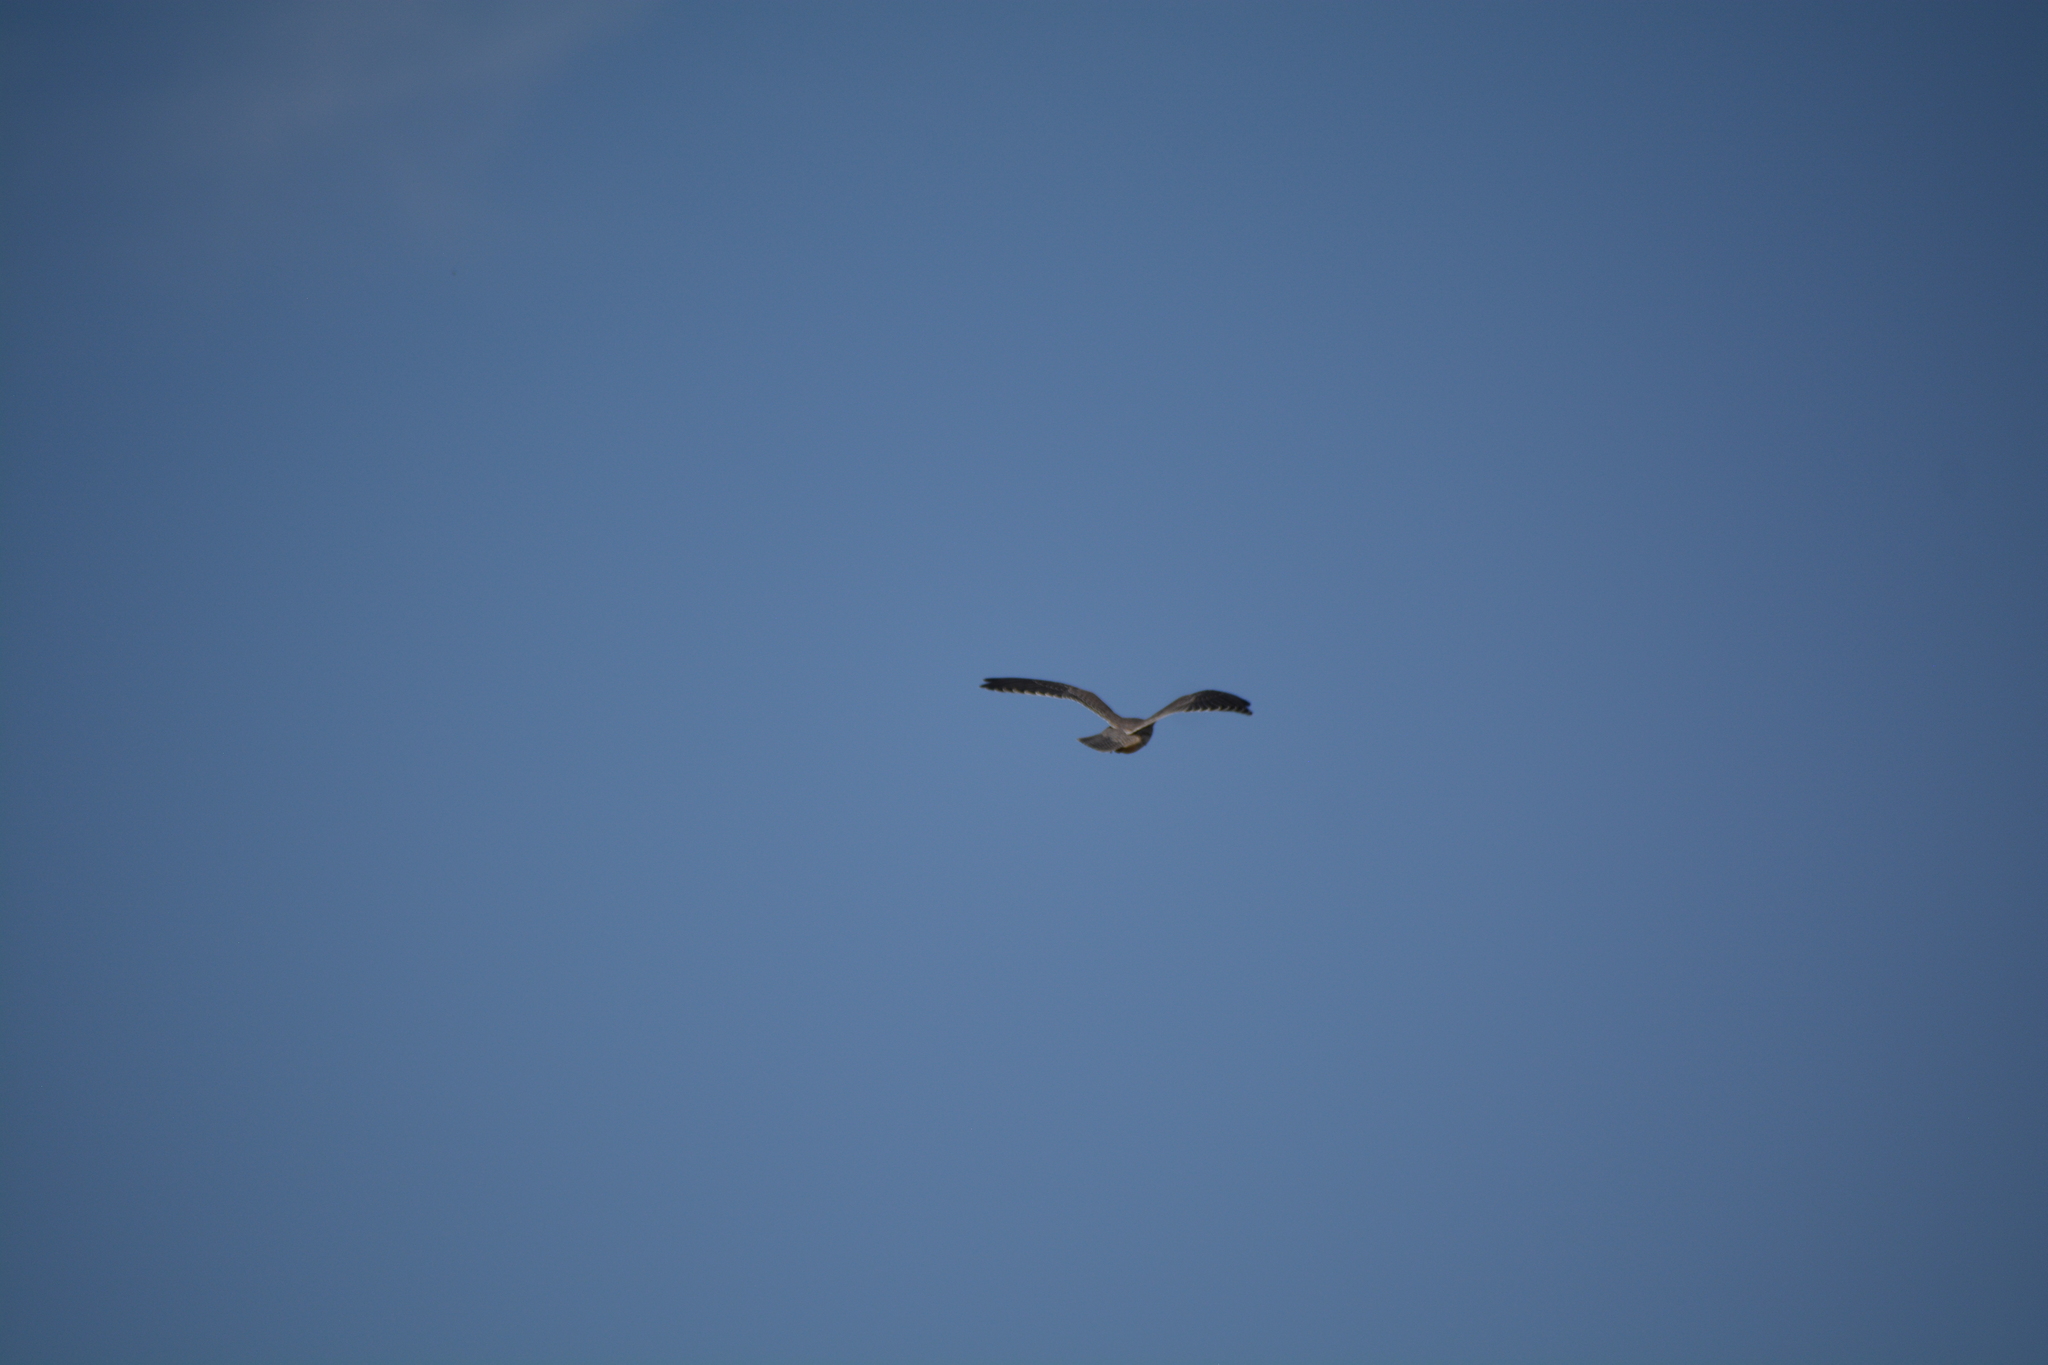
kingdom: Animalia
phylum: Chordata
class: Aves
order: Falconiformes
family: Falconidae
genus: Falco
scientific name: Falco amurensis
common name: Amur falcon
